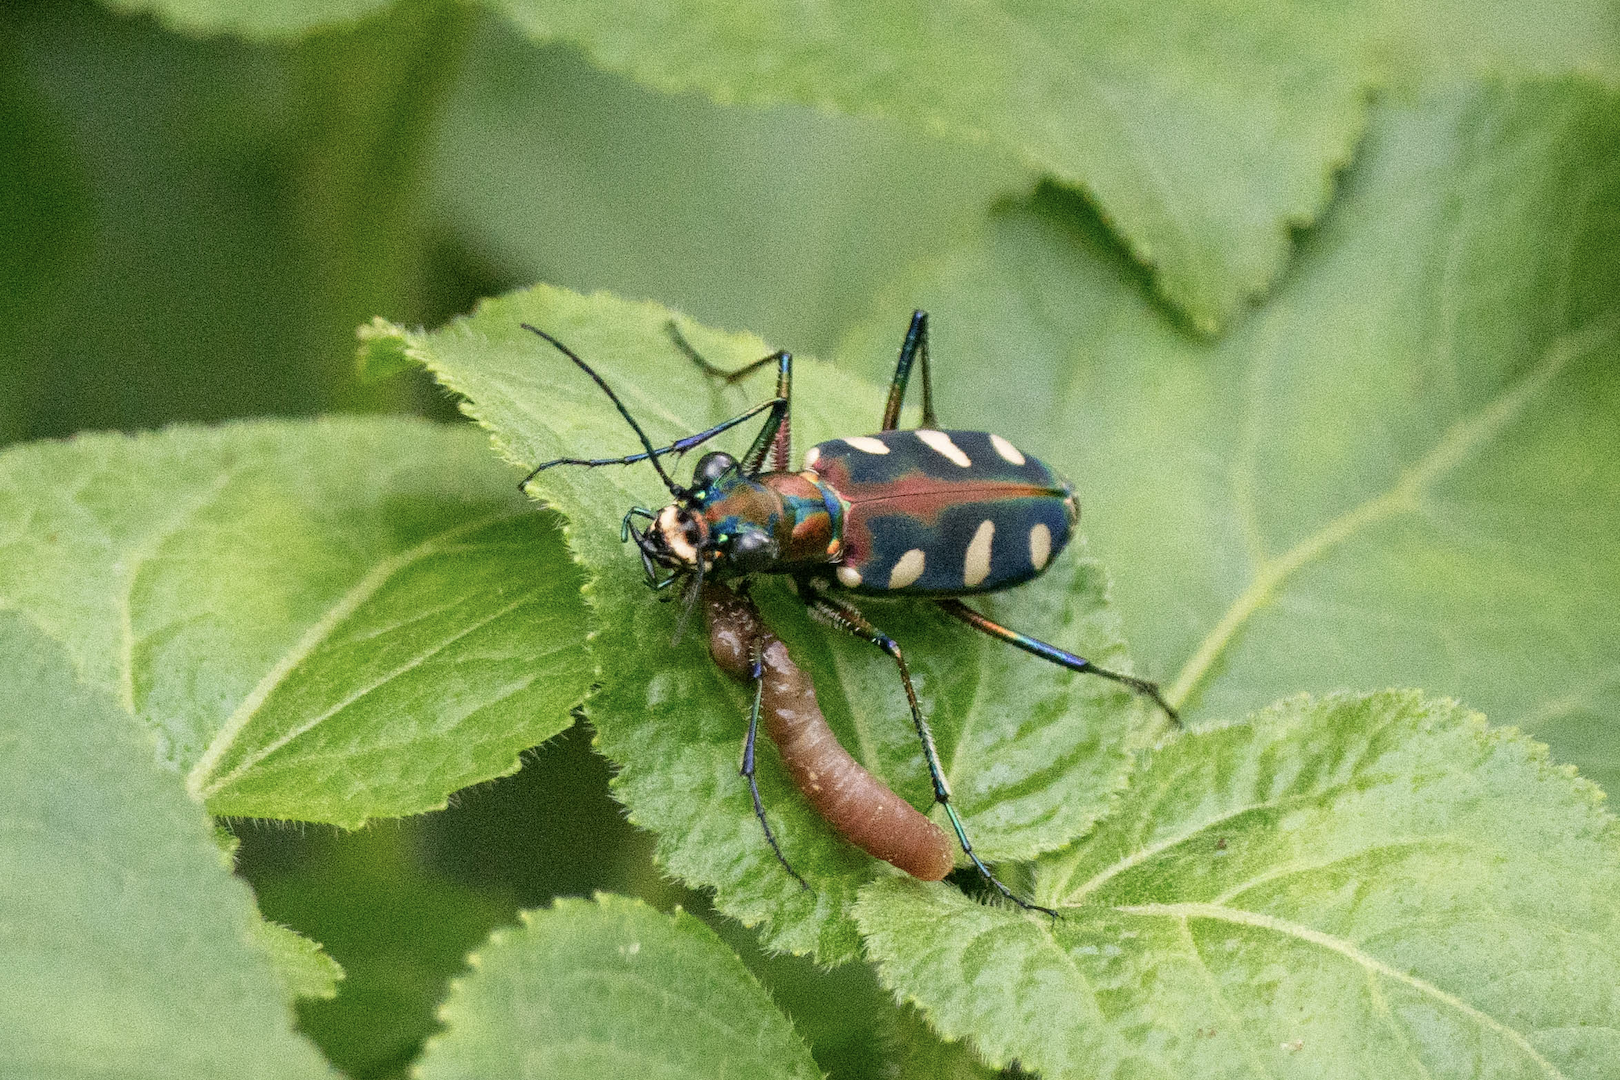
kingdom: Animalia
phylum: Arthropoda
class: Insecta
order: Coleoptera
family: Carabidae
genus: Cicindela
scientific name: Cicindela juxtata
